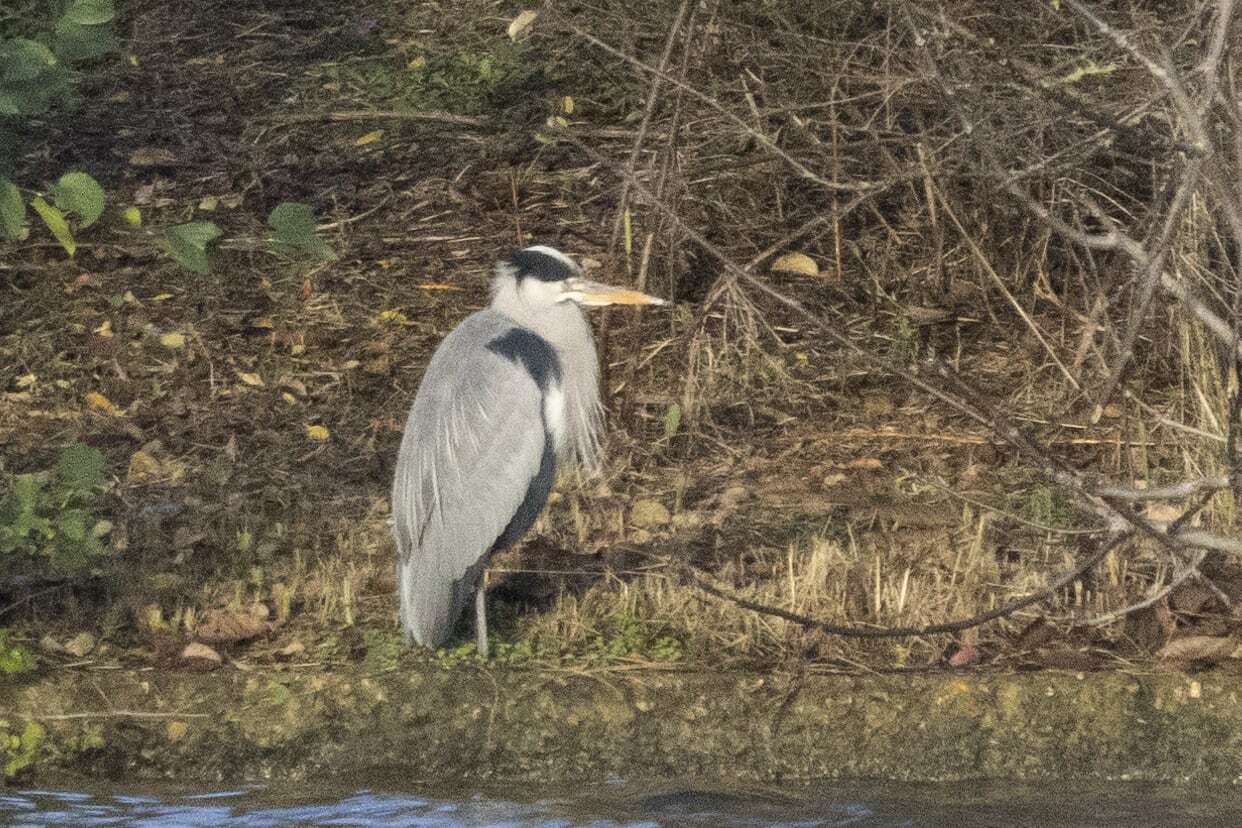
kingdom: Animalia
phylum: Chordata
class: Aves
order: Pelecaniformes
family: Ardeidae
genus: Ardea
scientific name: Ardea cinerea
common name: Grey heron
